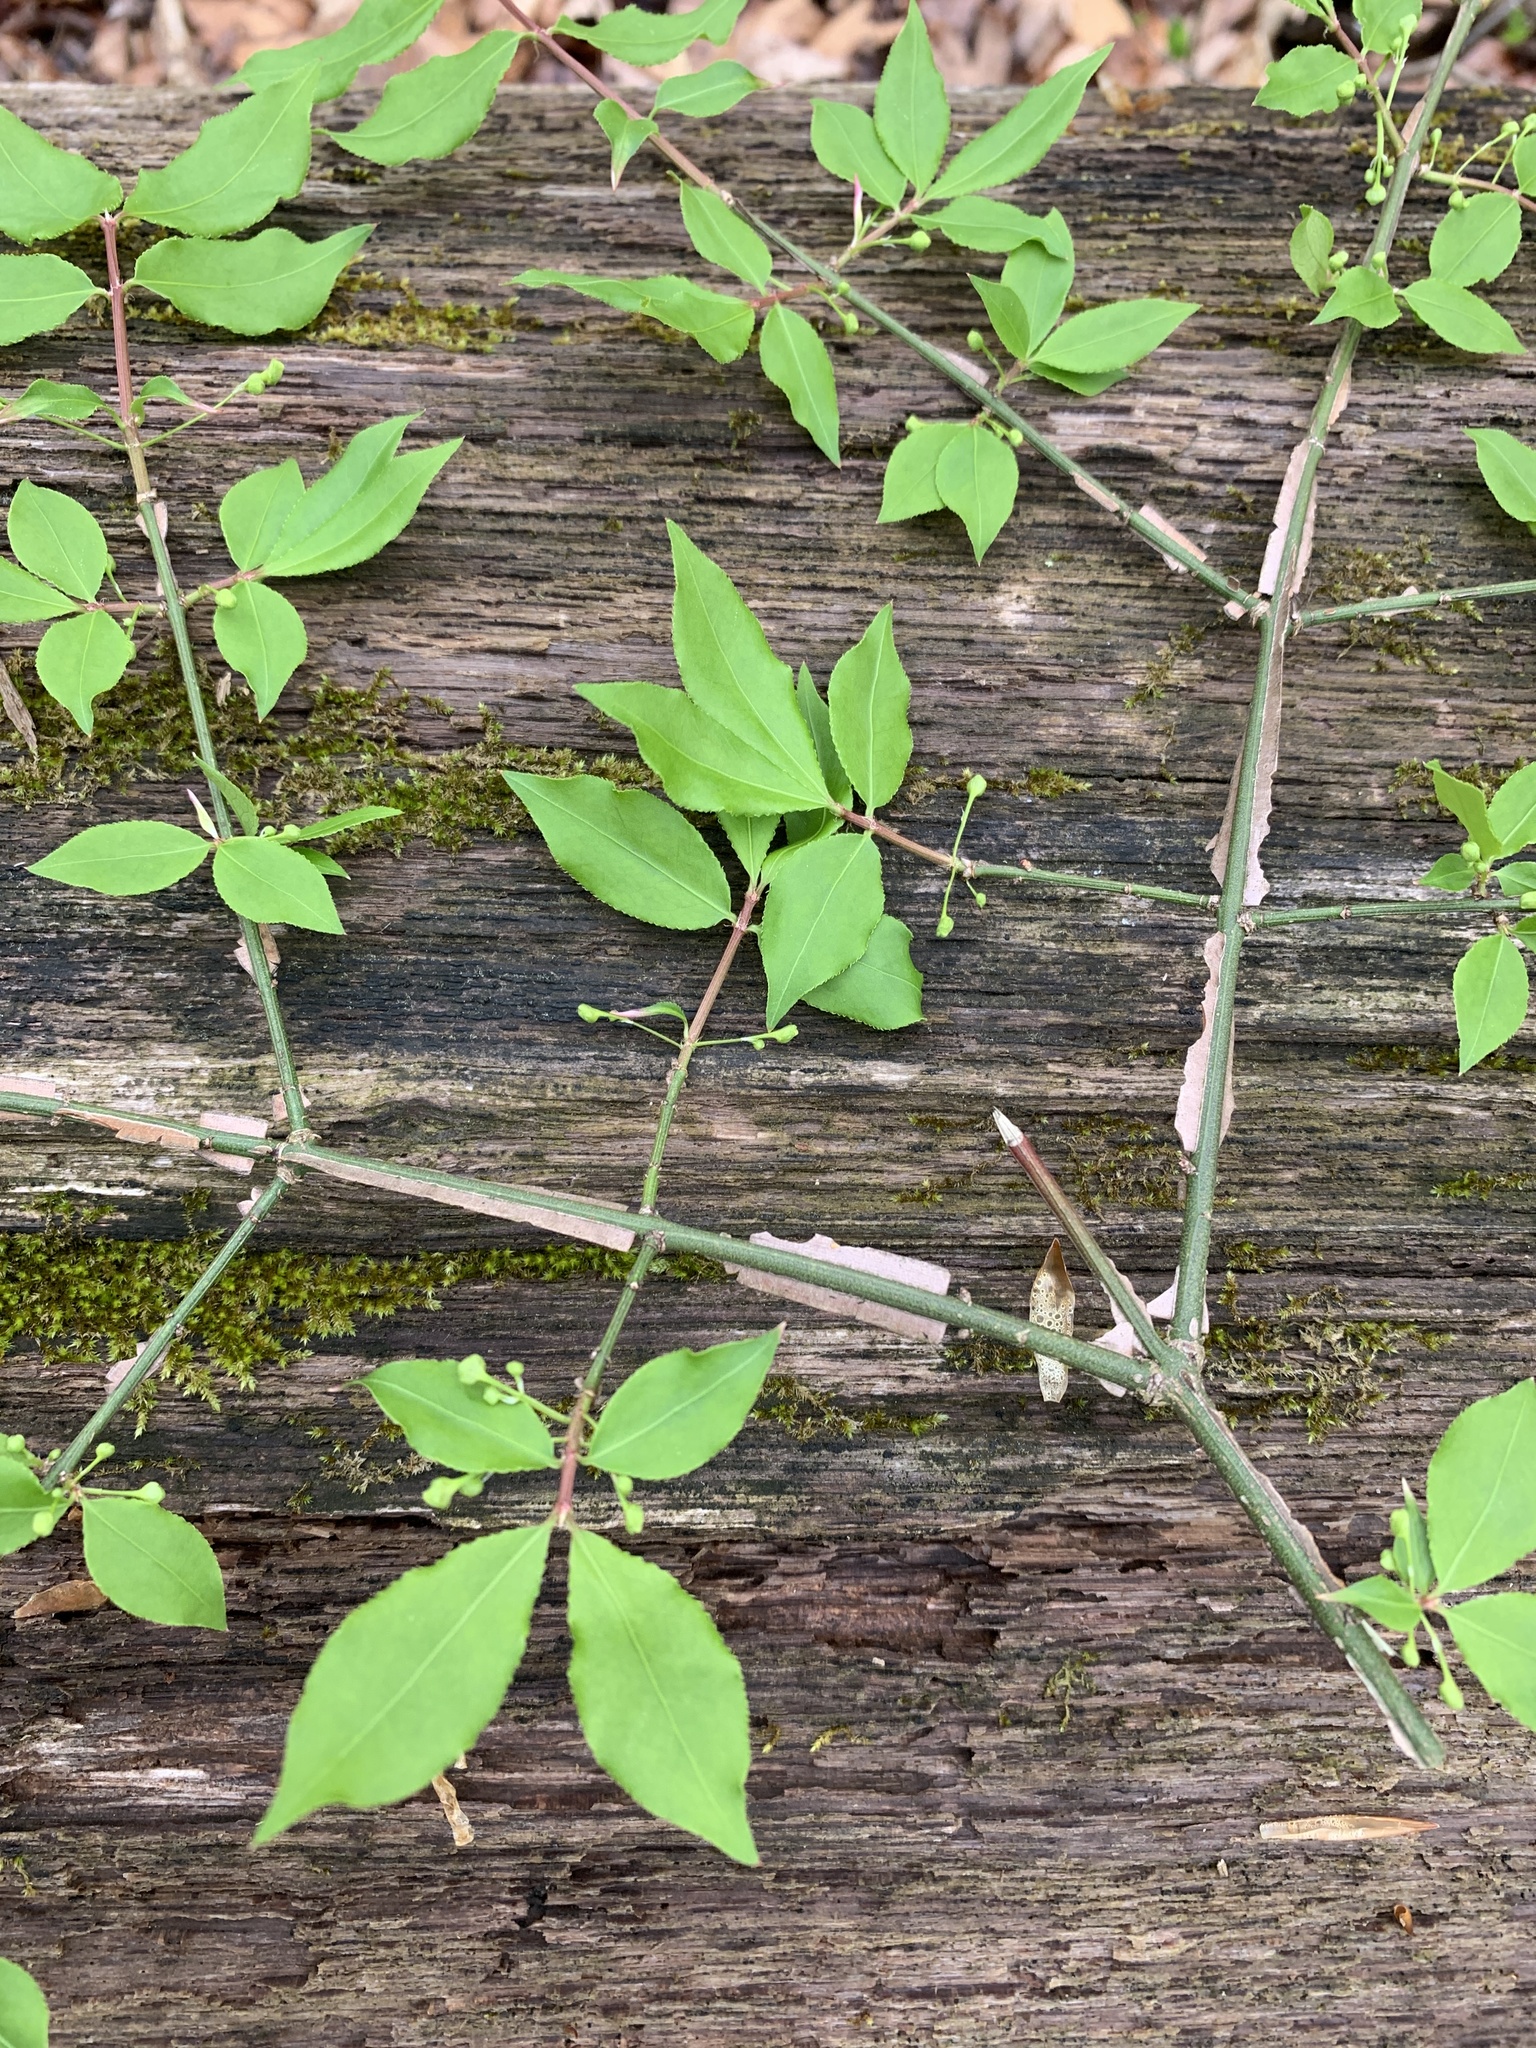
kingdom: Plantae
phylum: Tracheophyta
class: Magnoliopsida
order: Celastrales
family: Celastraceae
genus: Euonymus
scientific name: Euonymus alatus
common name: Winged euonymus
